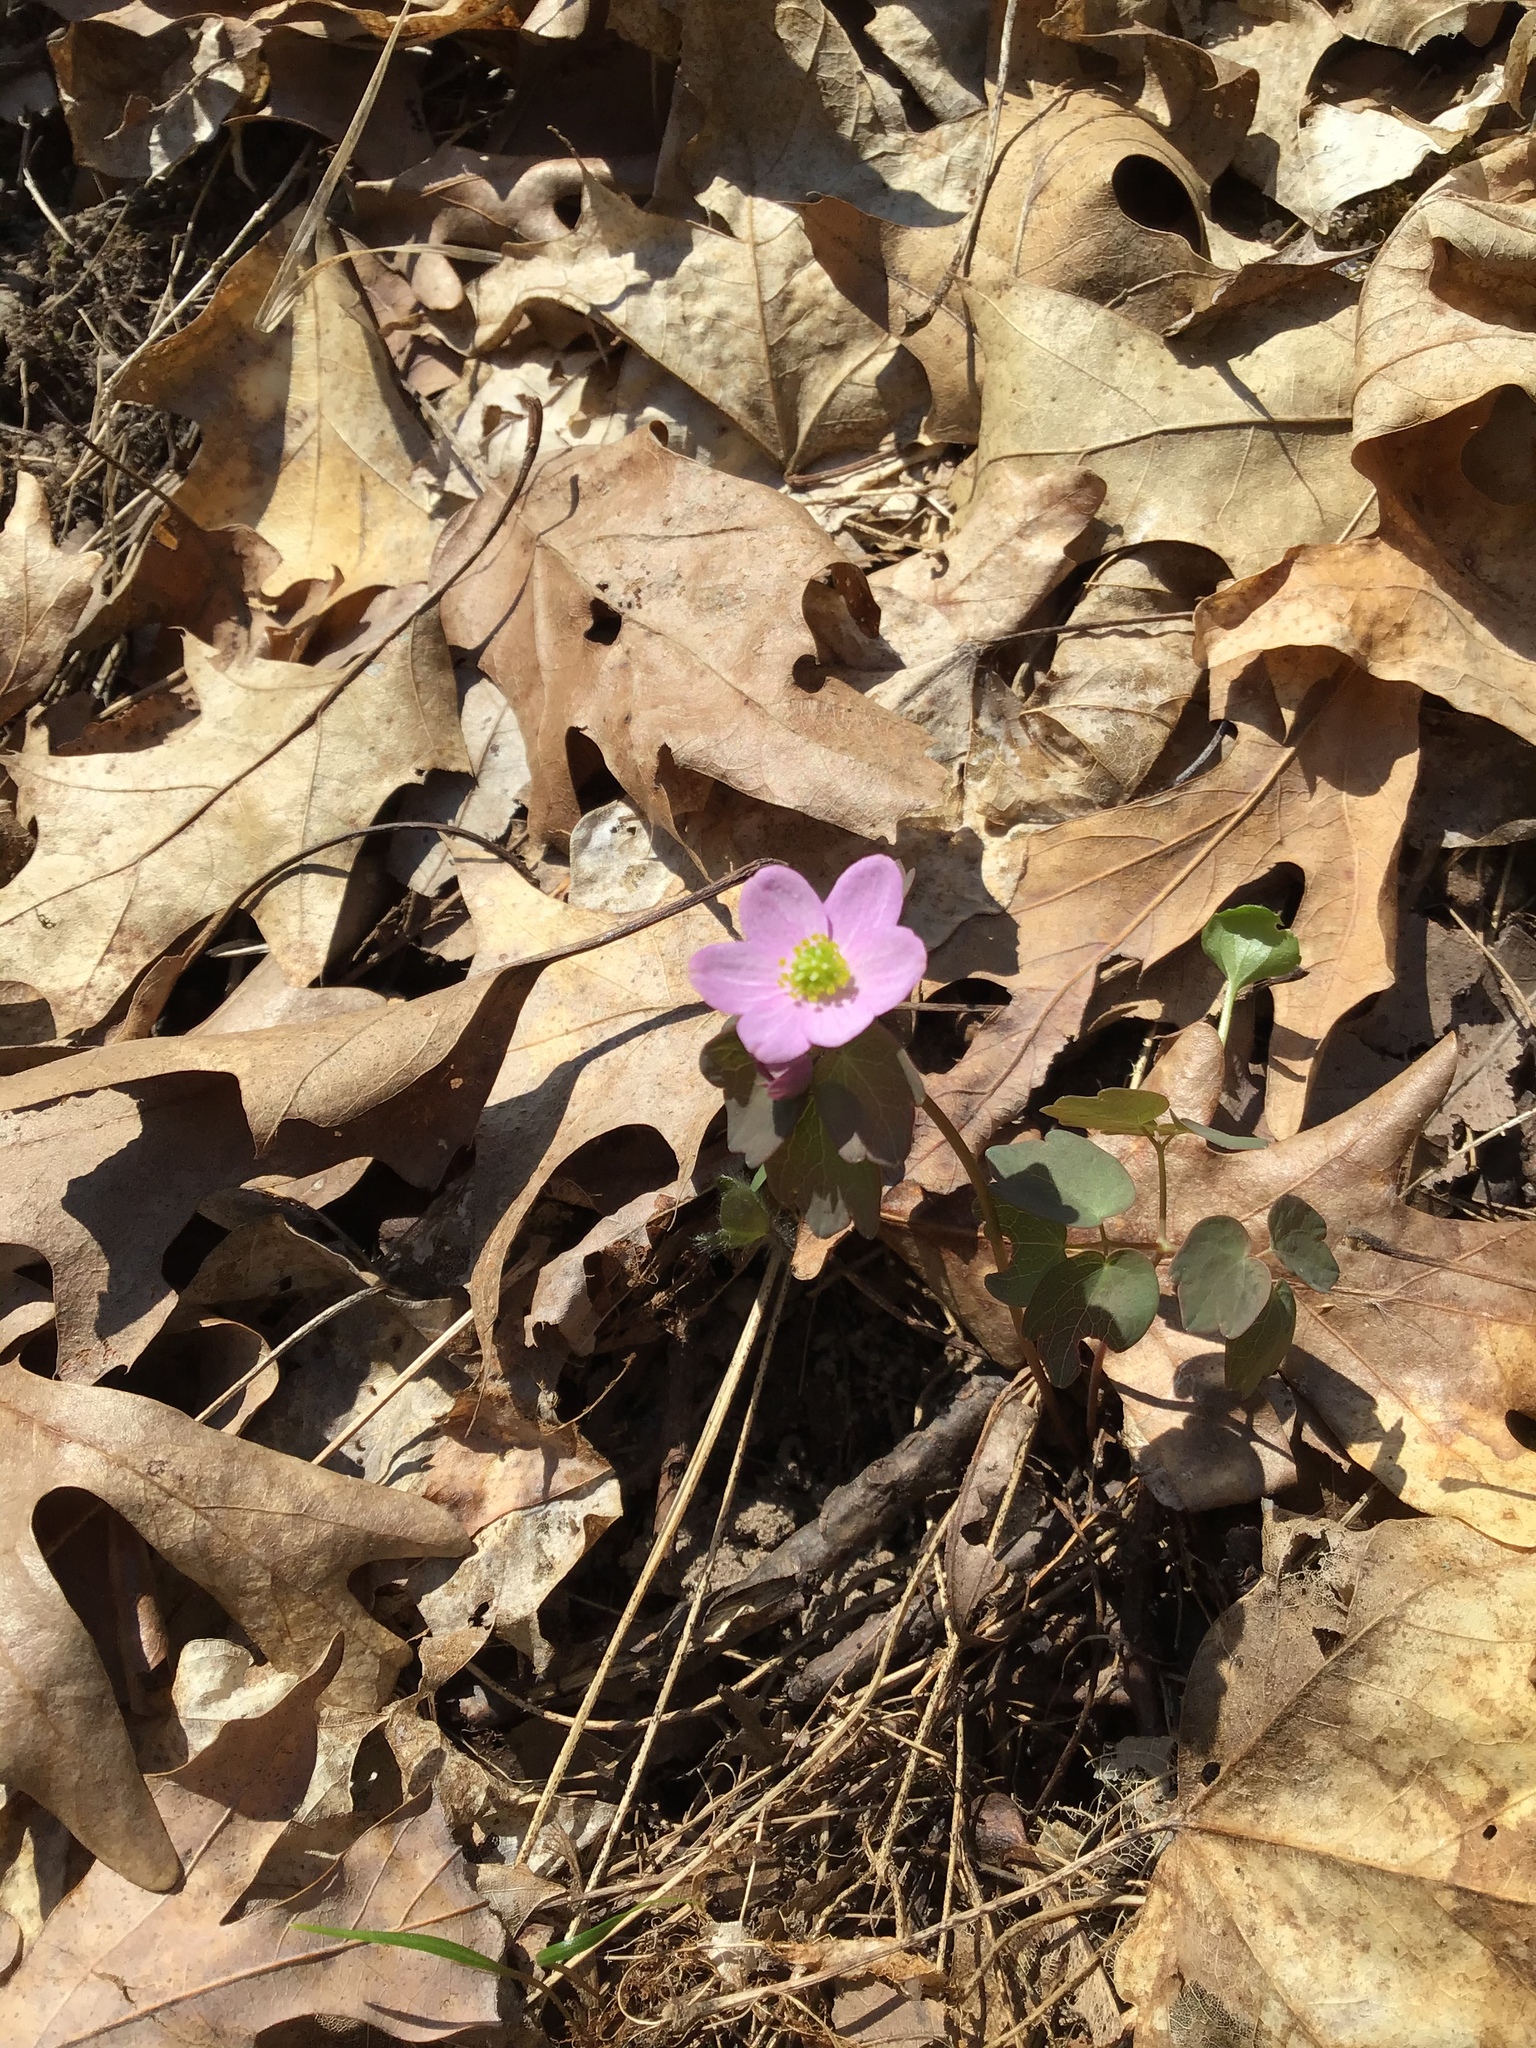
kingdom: Plantae
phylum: Tracheophyta
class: Magnoliopsida
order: Ranunculales
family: Ranunculaceae
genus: Thalictrum
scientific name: Thalictrum thalictroides
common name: Rue-anemone
